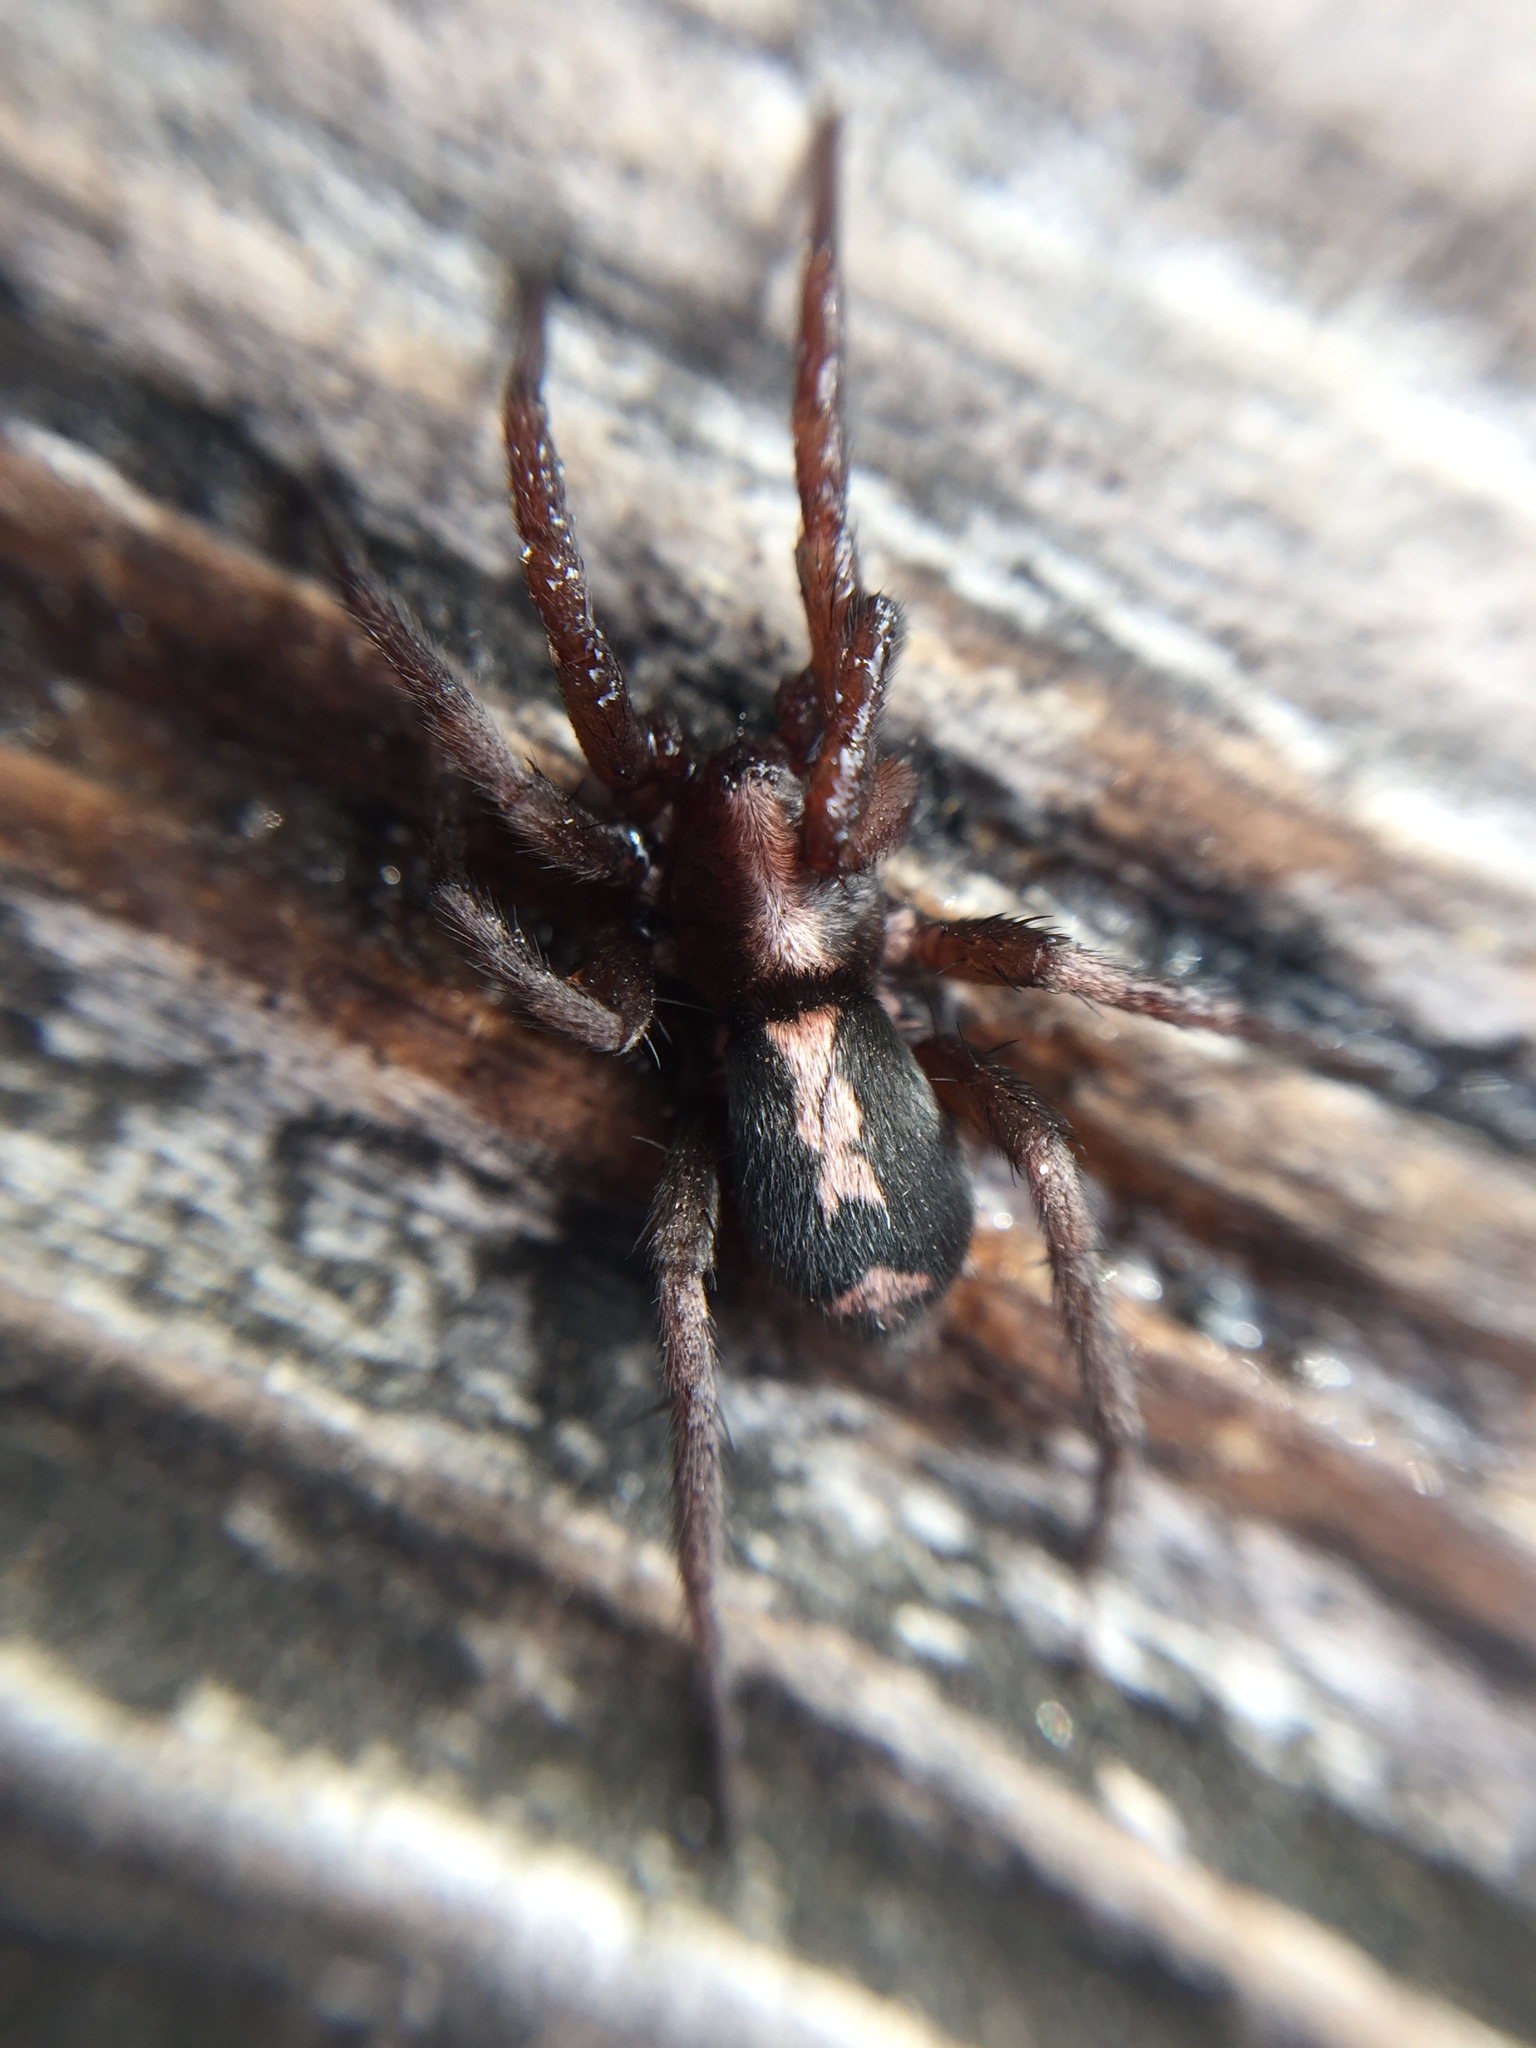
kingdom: Animalia
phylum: Arthropoda
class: Arachnida
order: Araneae
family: Gnaphosidae
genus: Herpyllus
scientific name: Herpyllus propinquus
